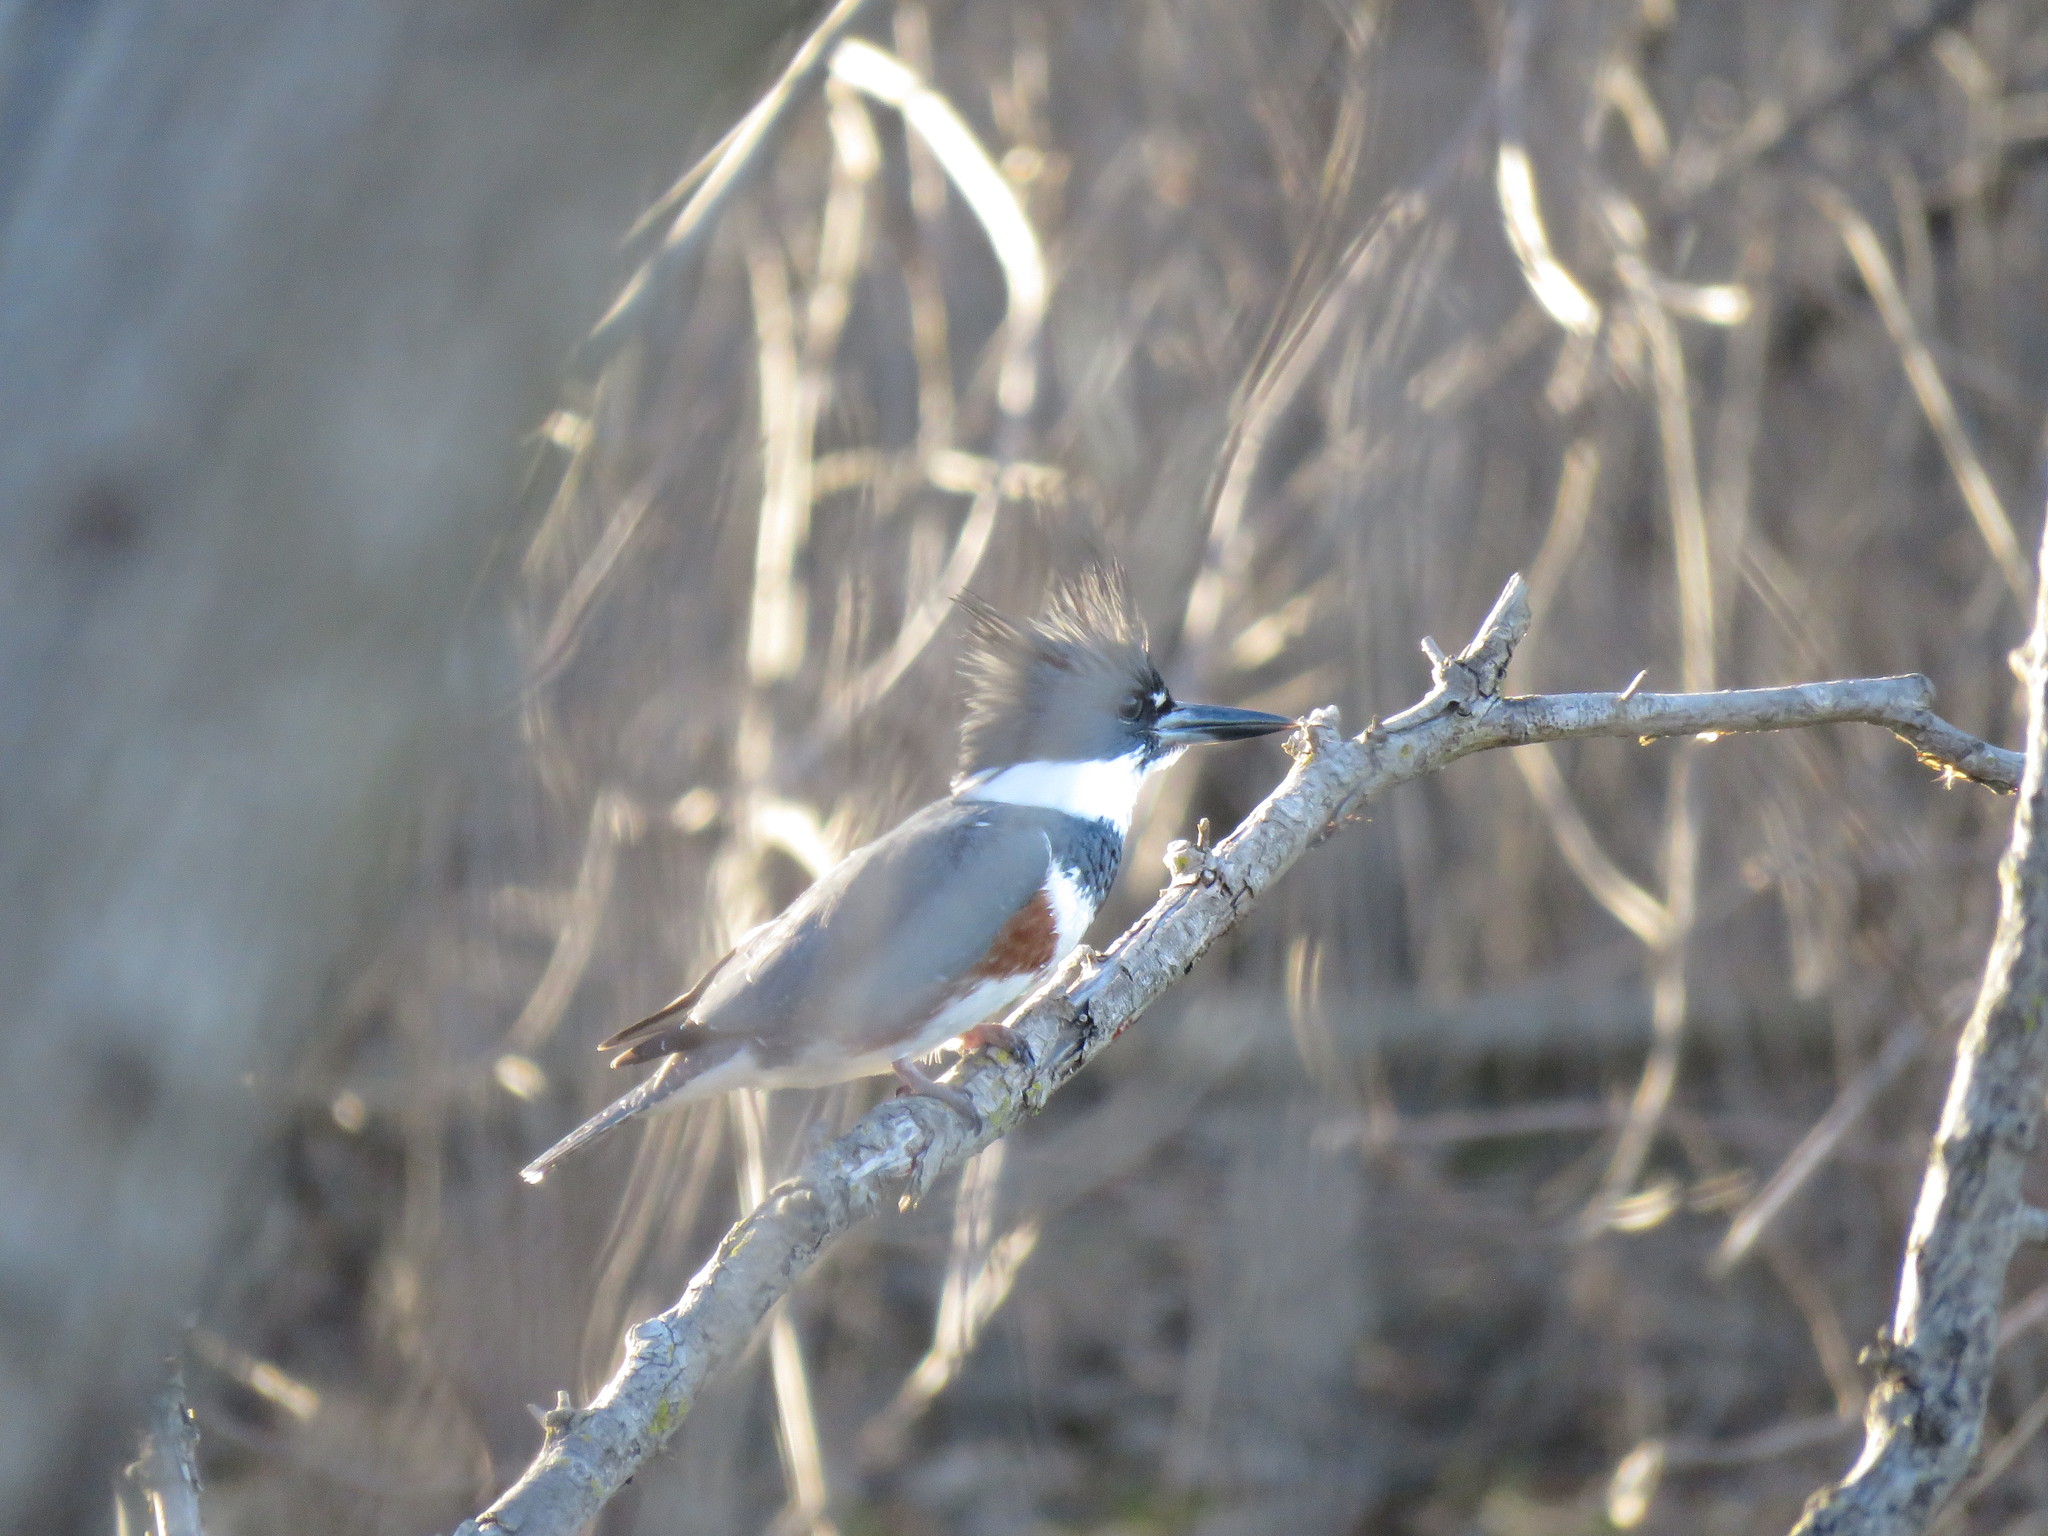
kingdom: Animalia
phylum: Chordata
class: Aves
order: Coraciiformes
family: Alcedinidae
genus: Megaceryle
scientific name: Megaceryle alcyon
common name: Belted kingfisher
